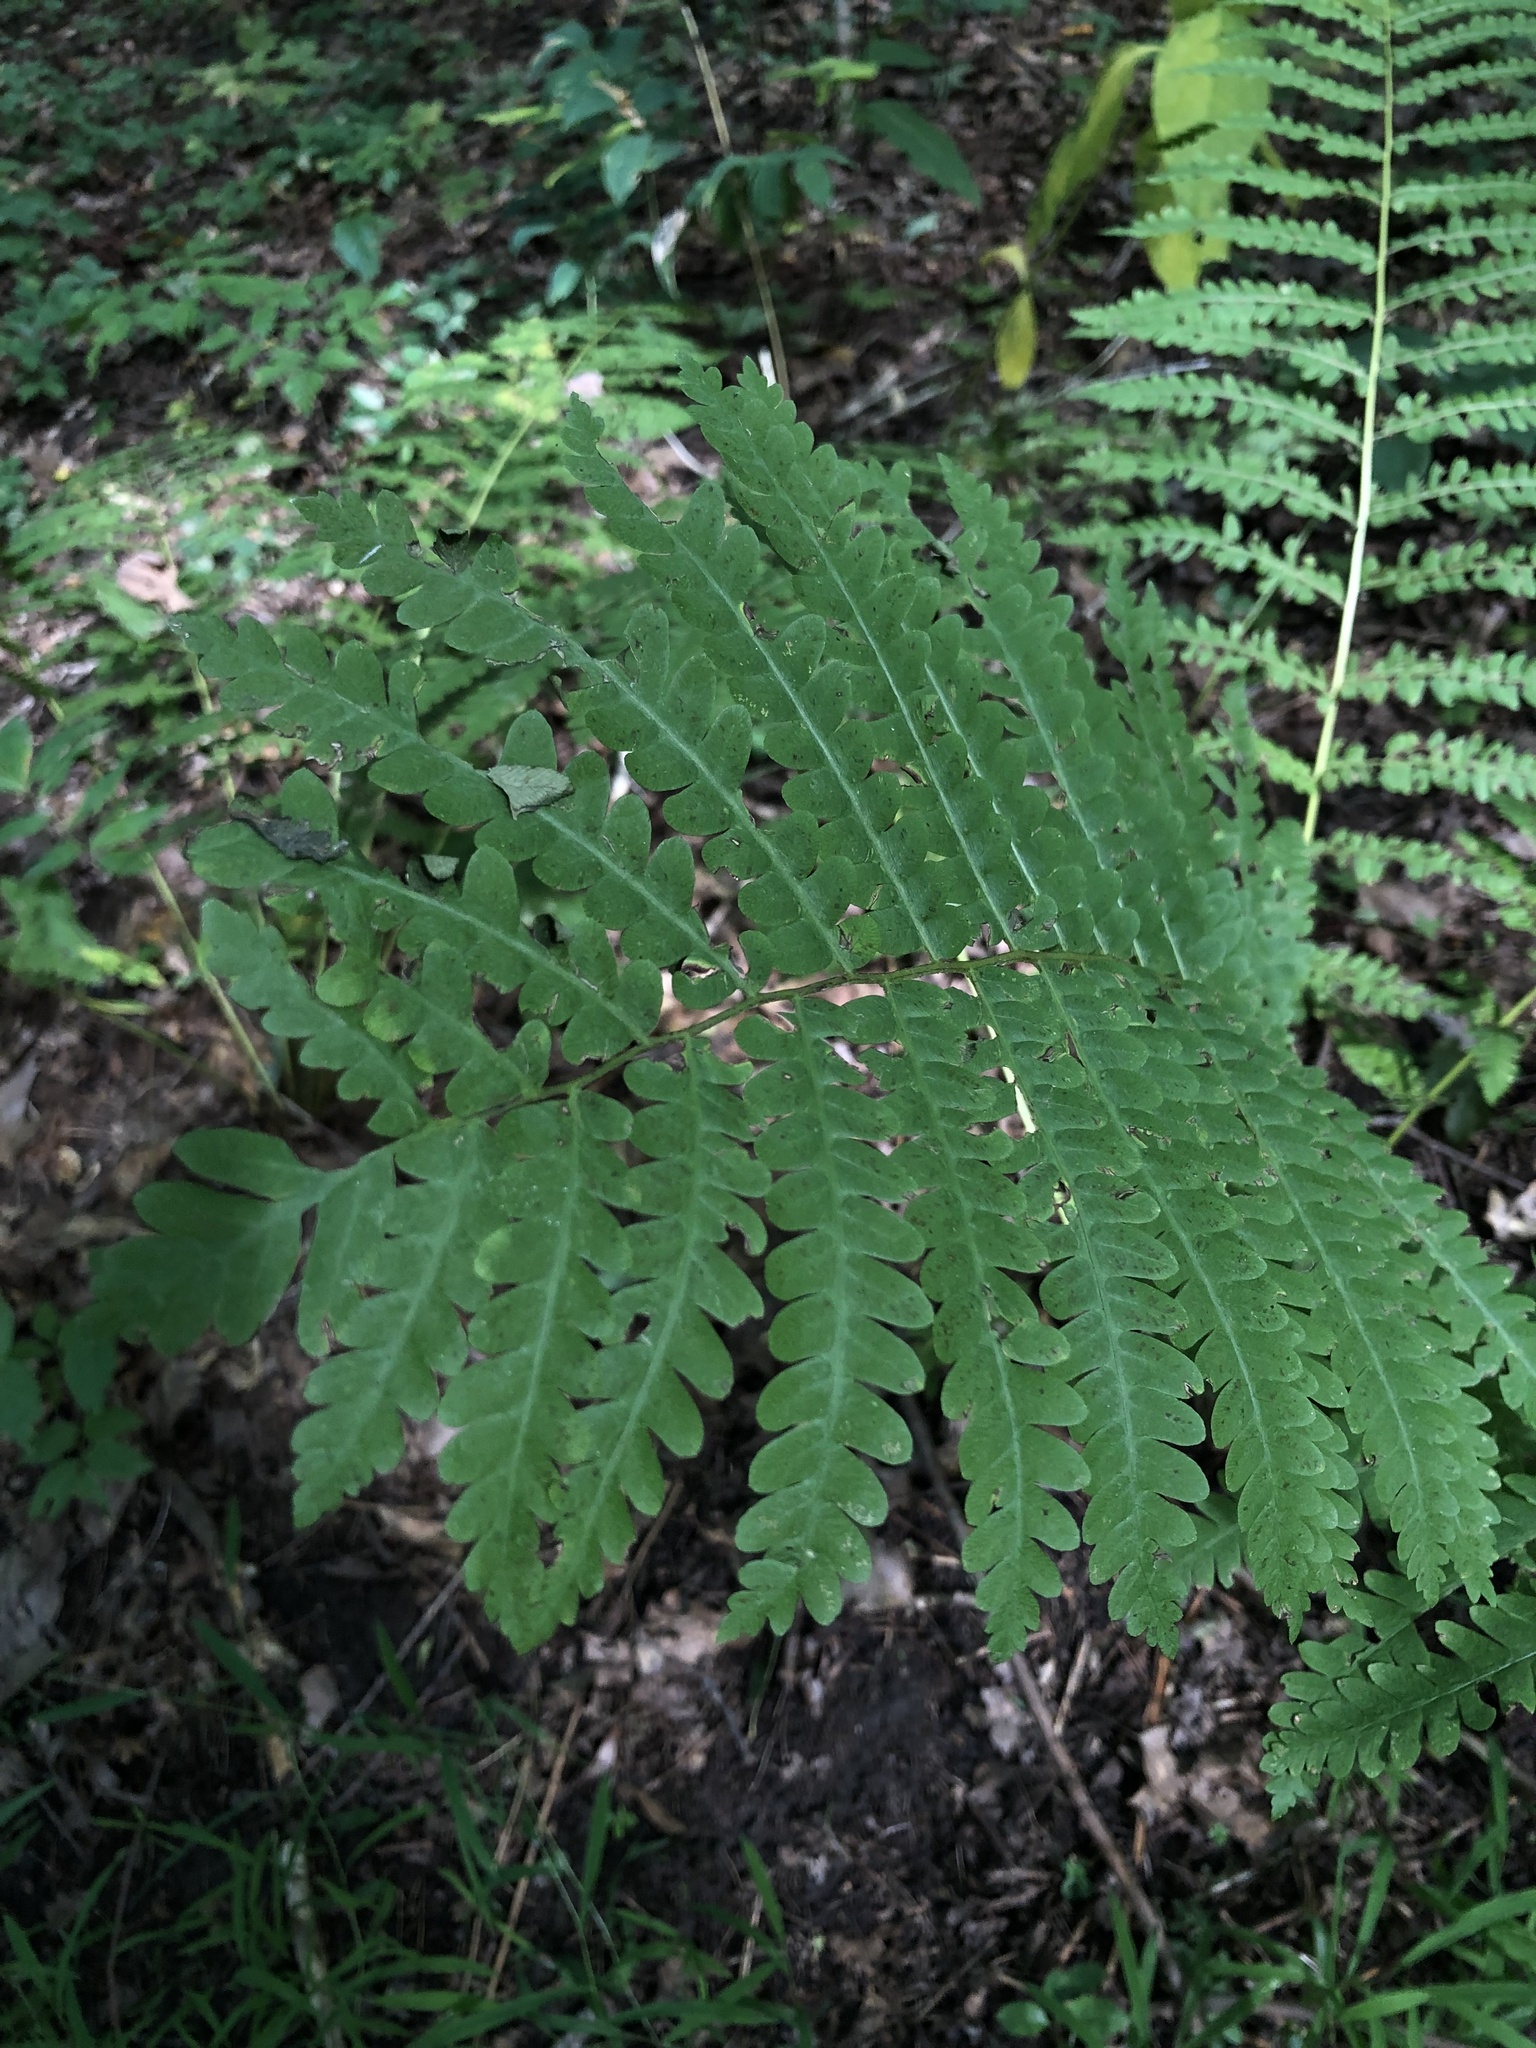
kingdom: Plantae
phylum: Tracheophyta
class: Polypodiopsida
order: Osmundales
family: Osmundaceae
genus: Claytosmunda
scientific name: Claytosmunda claytoniana
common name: Clayton's fern
